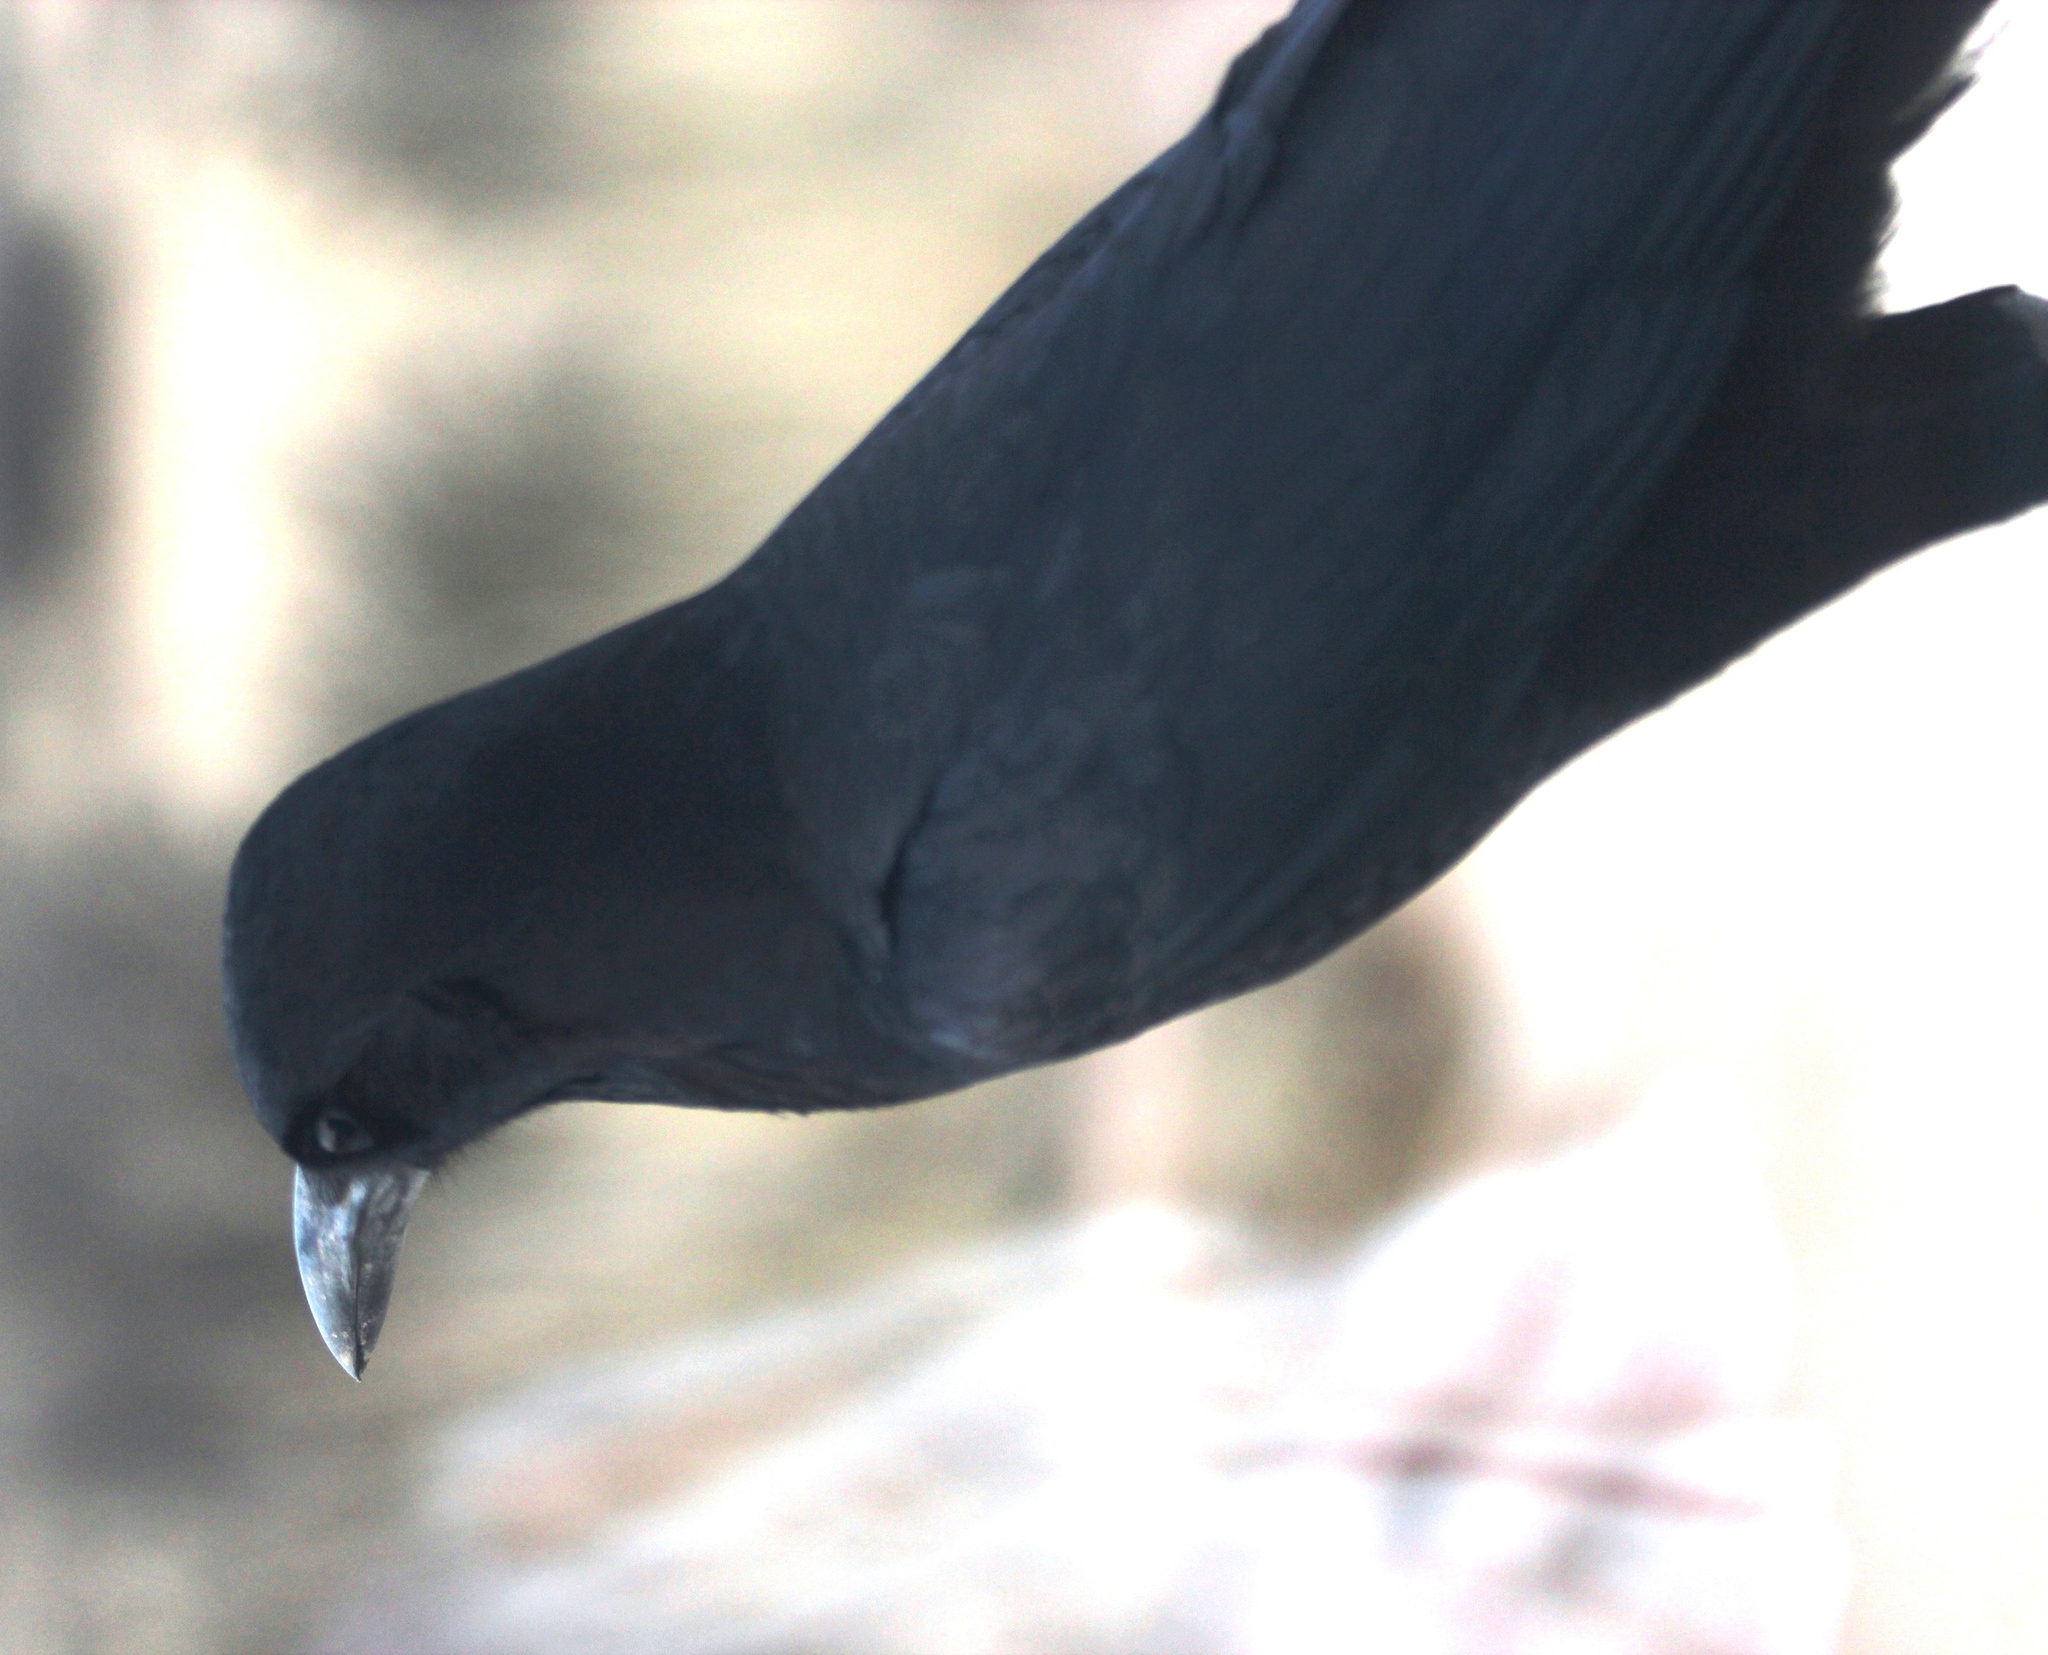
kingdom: Animalia
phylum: Chordata
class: Aves
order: Passeriformes
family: Corvidae
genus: Corvus
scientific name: Corvus capensis
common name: Cape crow
